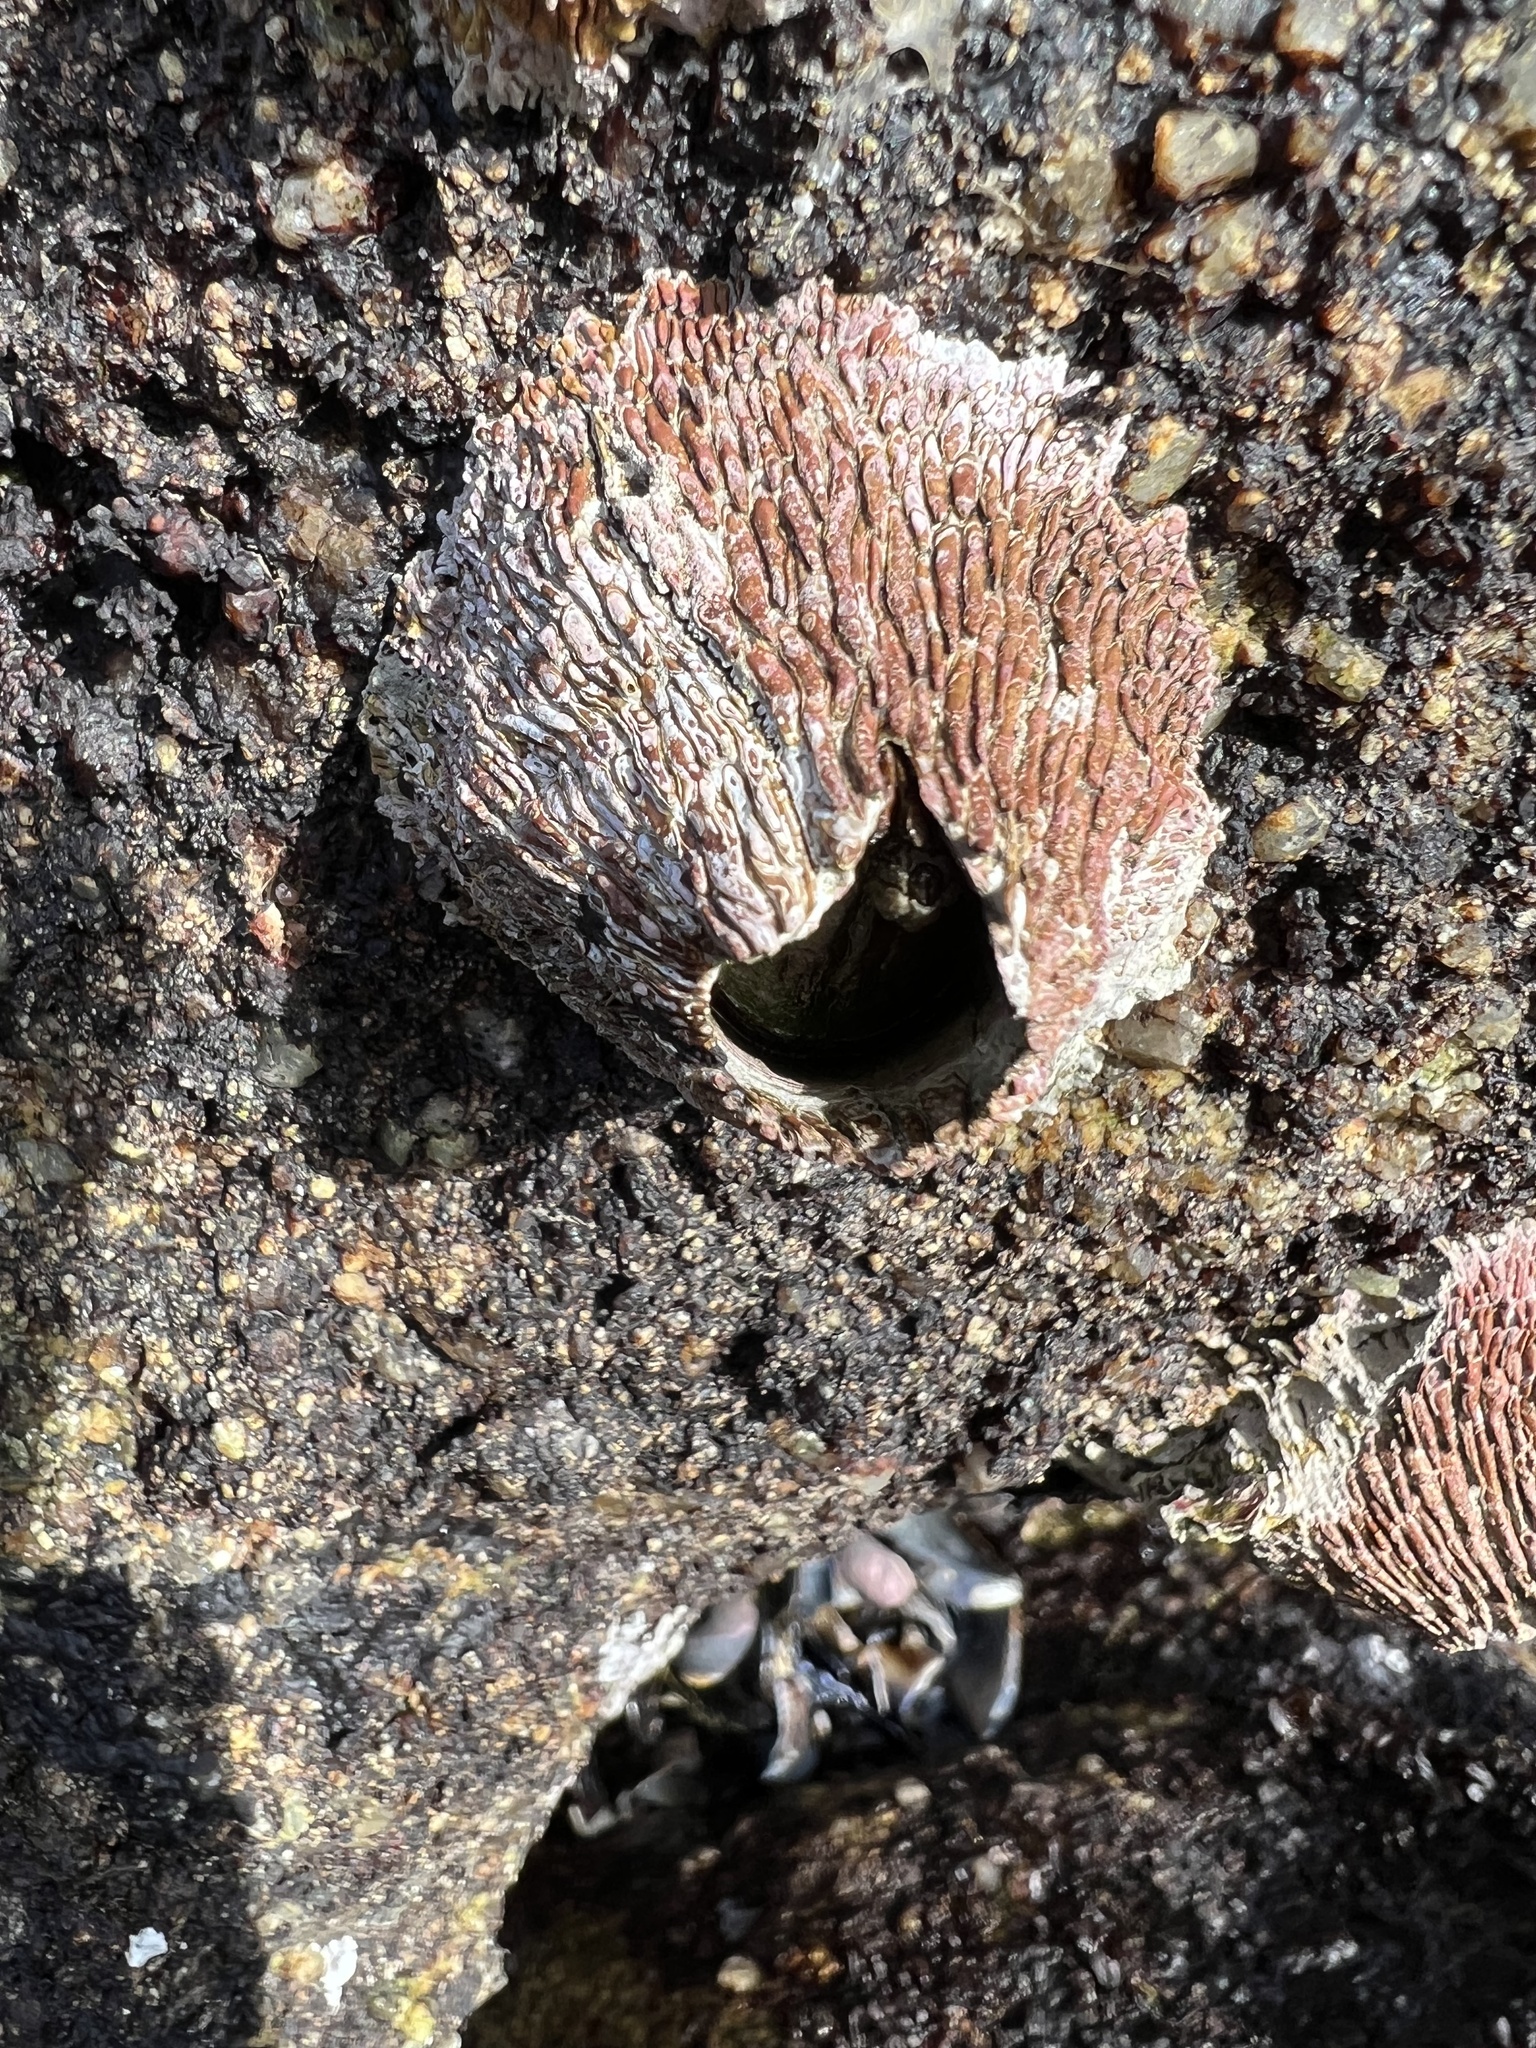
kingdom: Animalia
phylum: Arthropoda
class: Maxillopoda
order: Sessilia
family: Tetraclitidae
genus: Tetraclita
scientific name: Tetraclita rubescens
